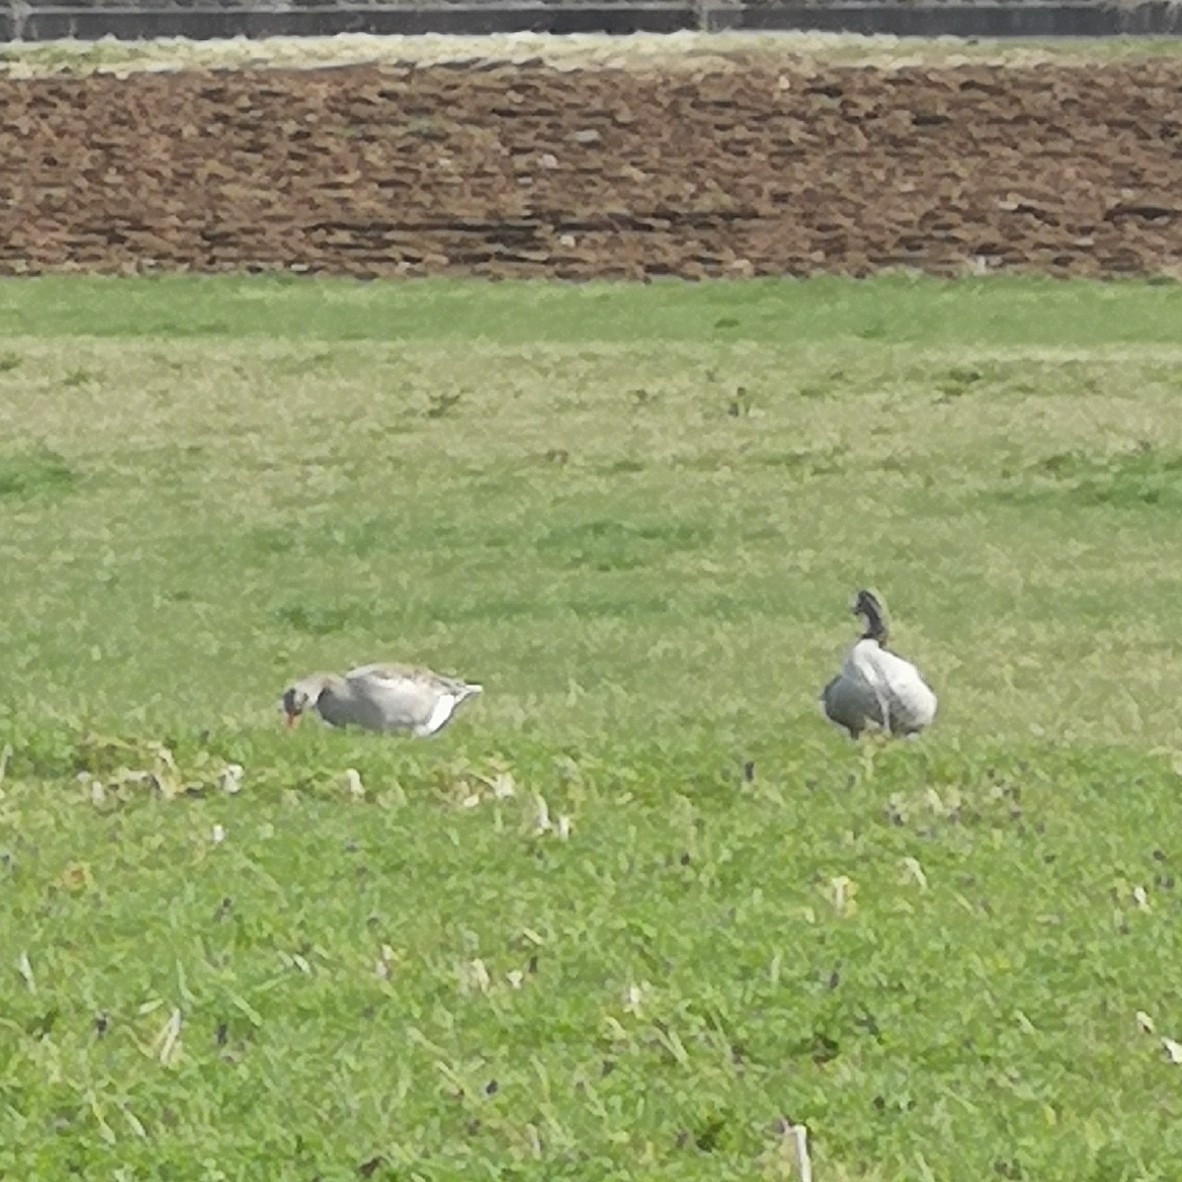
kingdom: Animalia
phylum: Chordata
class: Aves
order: Anseriformes
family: Anatidae
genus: Anser
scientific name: Anser anser
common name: Greylag goose
